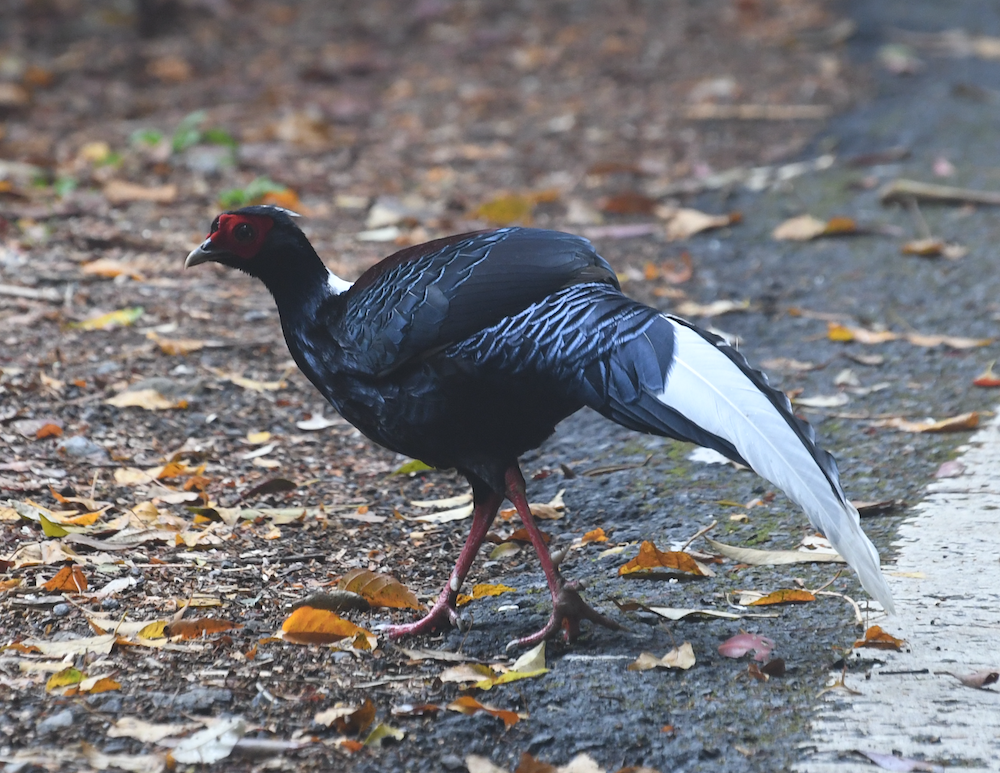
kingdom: Animalia
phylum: Chordata
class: Aves
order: Galliformes
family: Phasianidae
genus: Lophura
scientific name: Lophura swinhoii
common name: Swinhoe's pheasant
